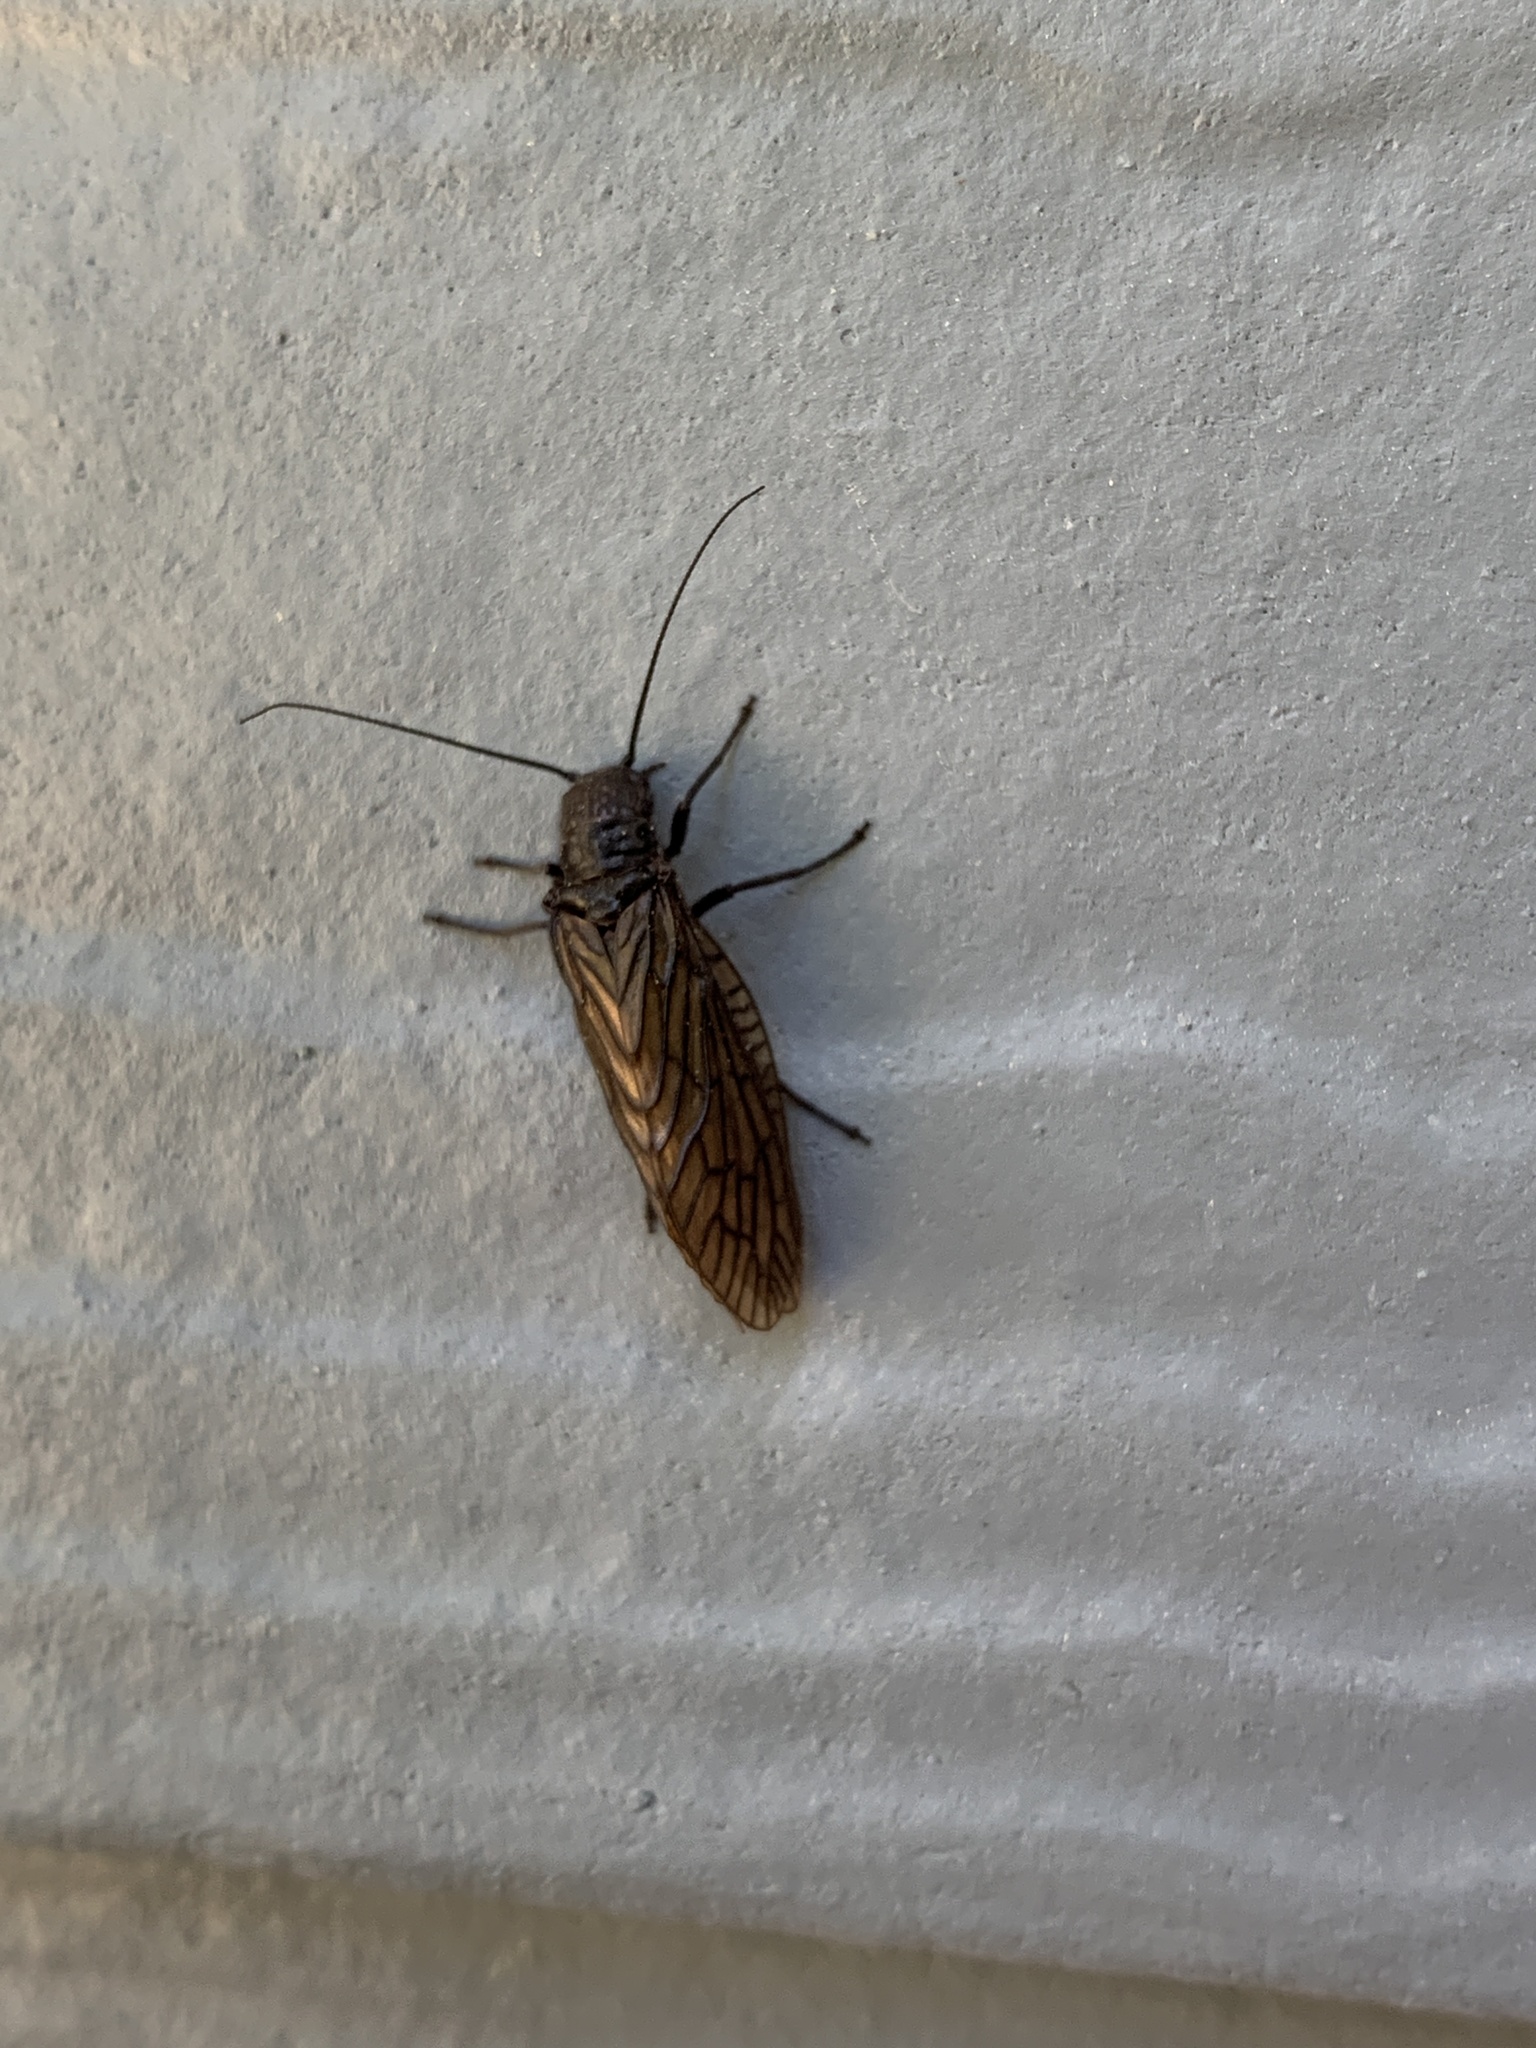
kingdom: Animalia
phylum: Arthropoda
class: Insecta
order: Megaloptera
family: Sialidae
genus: Sialis
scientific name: Sialis
